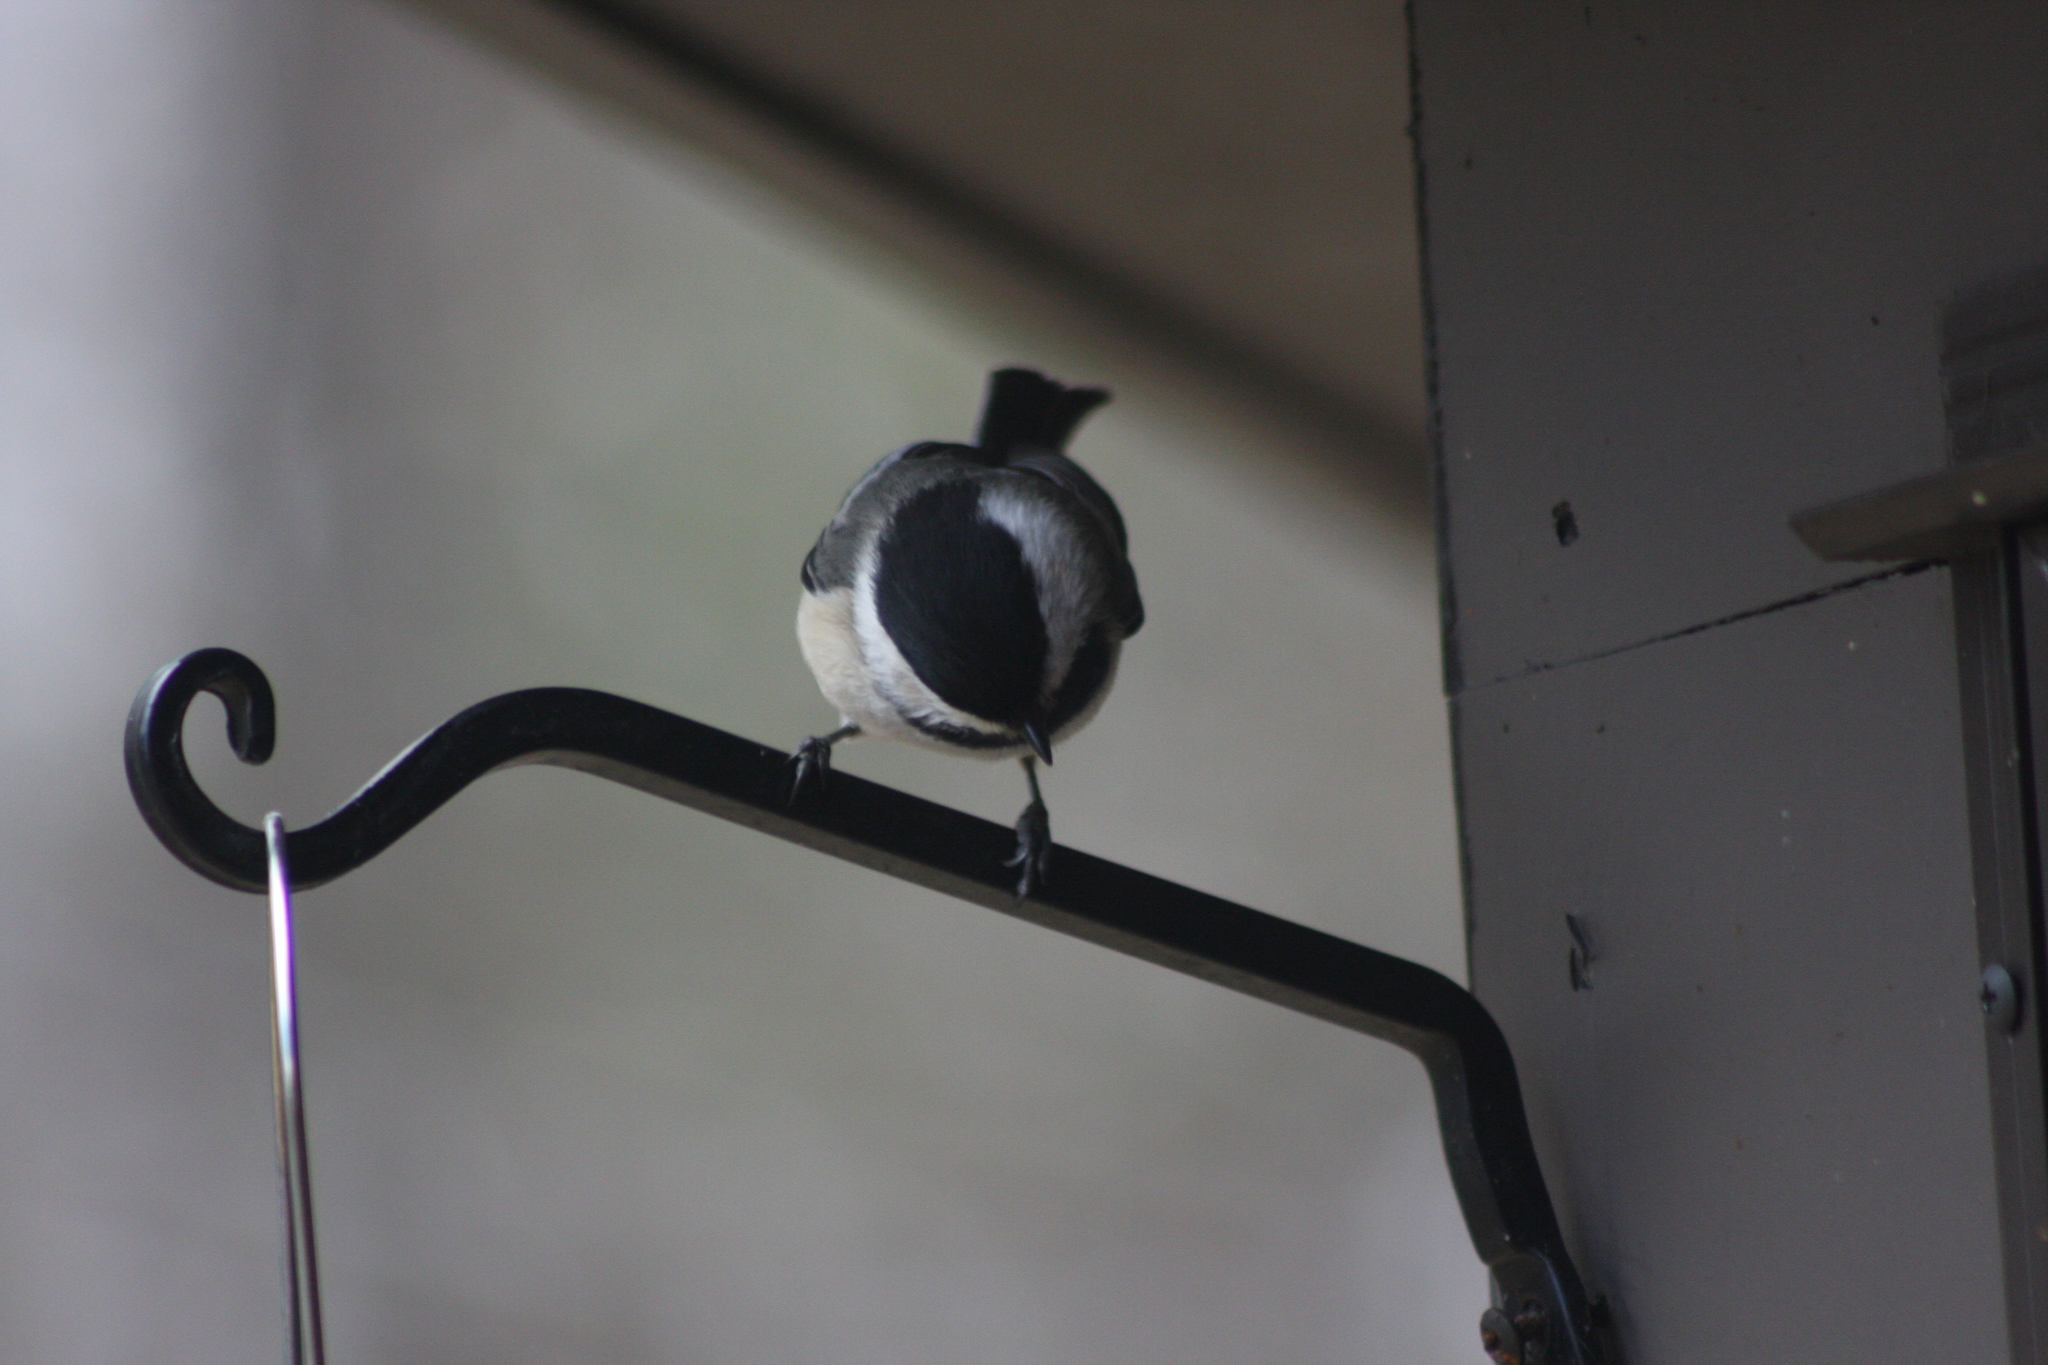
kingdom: Animalia
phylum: Chordata
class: Aves
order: Passeriformes
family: Paridae
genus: Poecile
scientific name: Poecile atricapillus
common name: Black-capped chickadee
